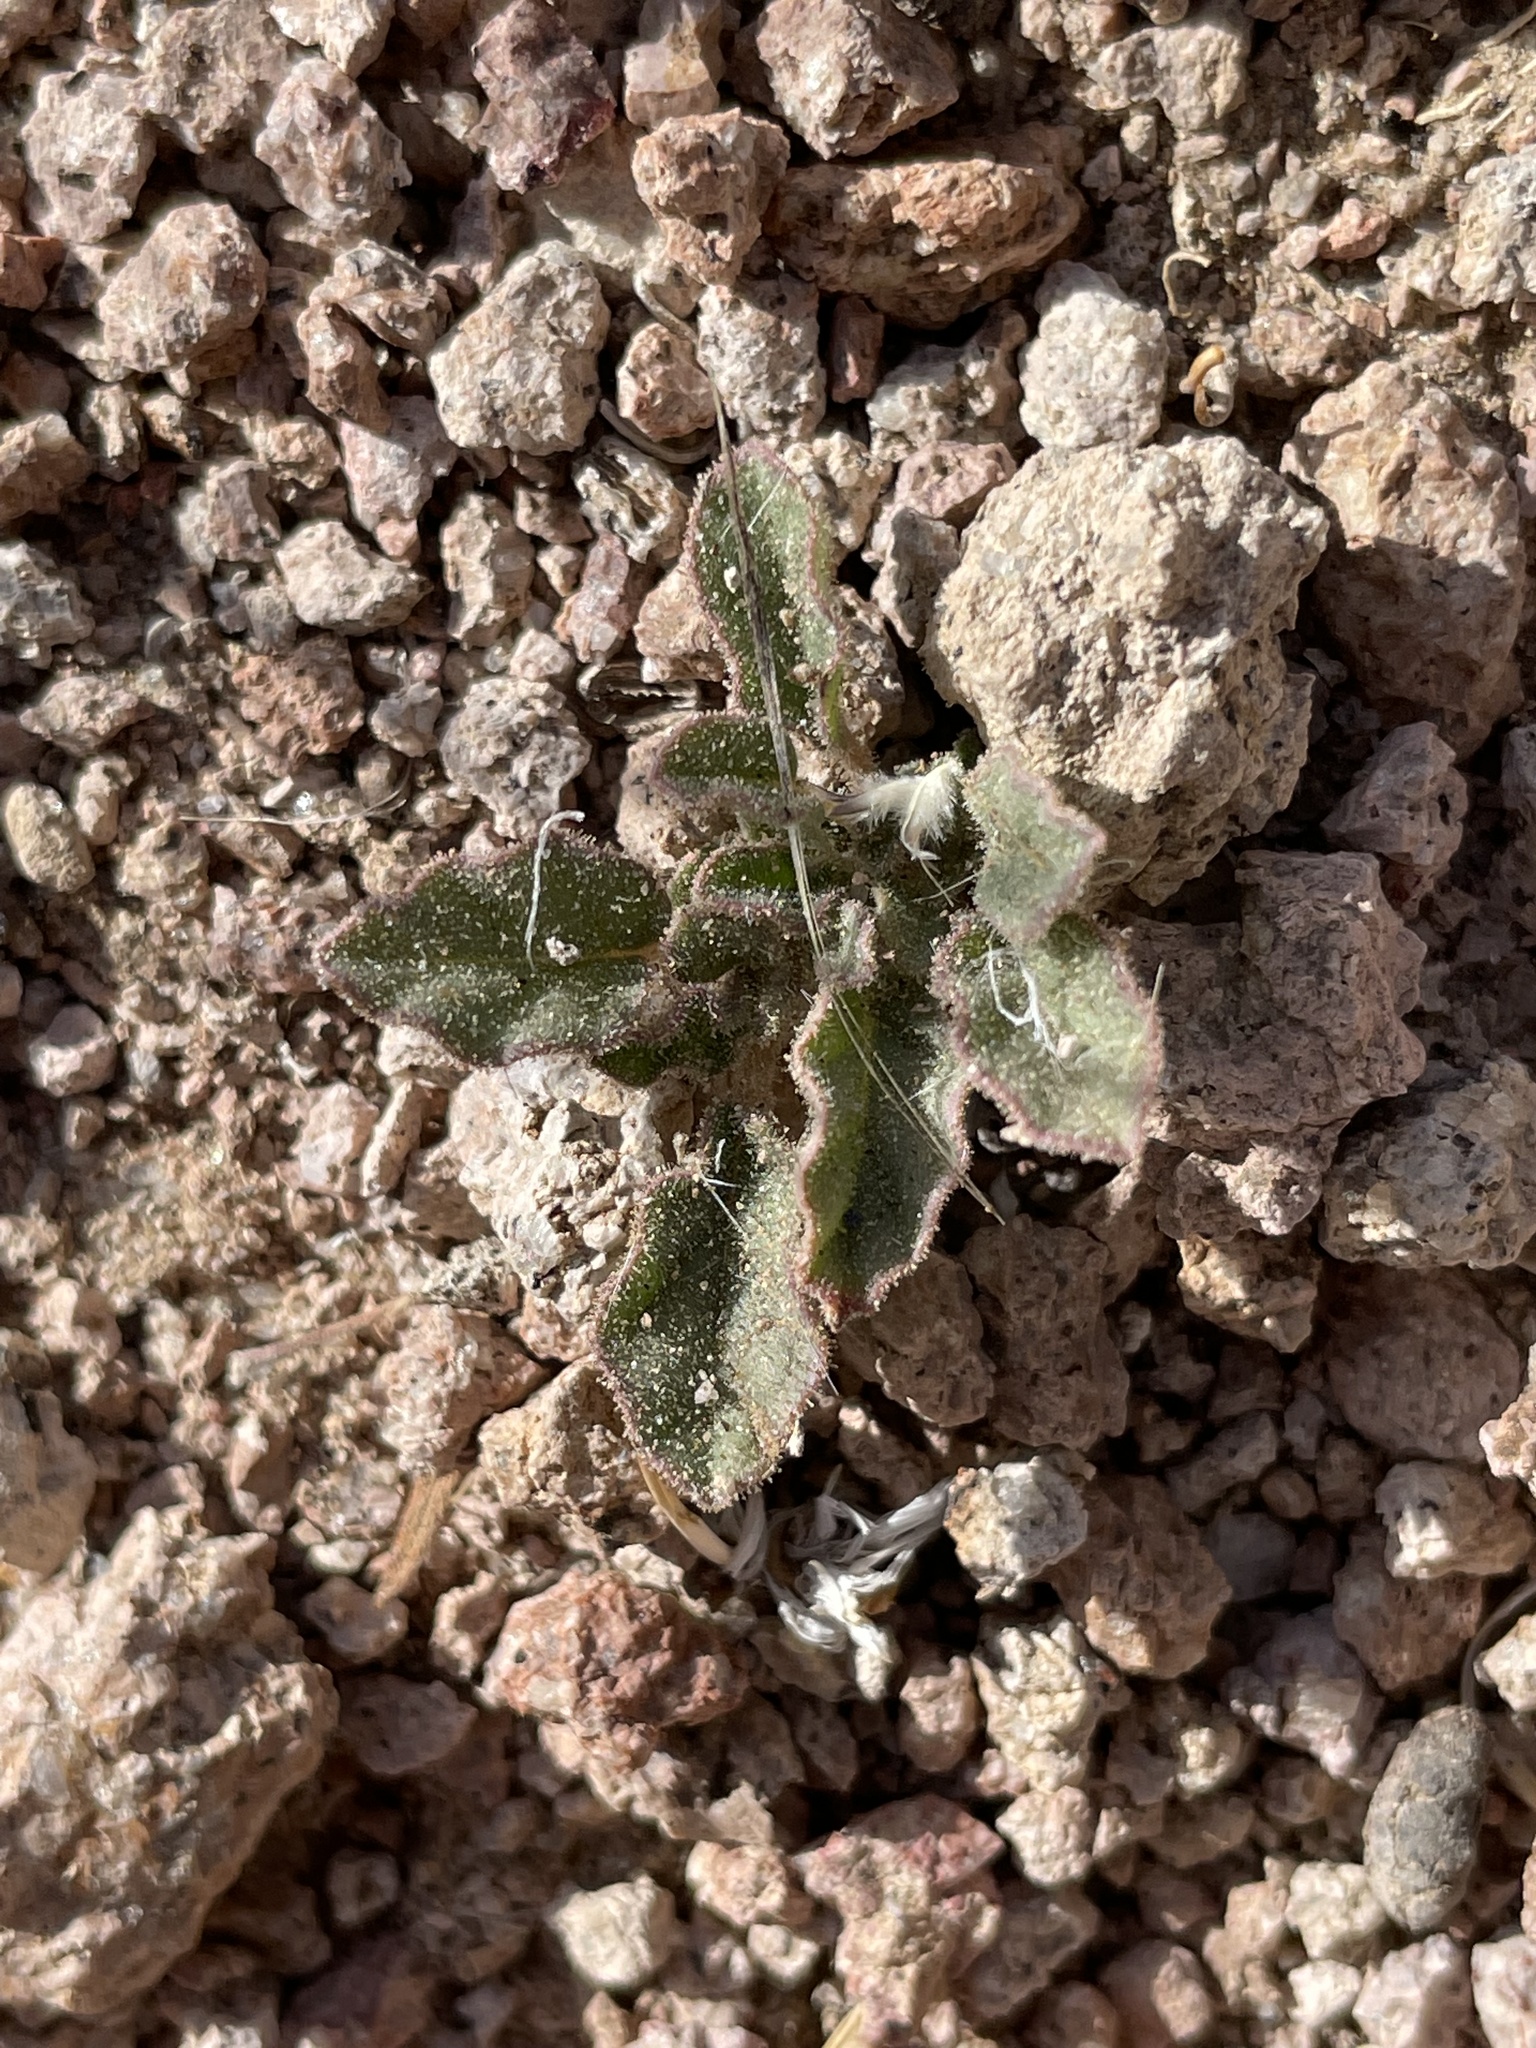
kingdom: Plantae
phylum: Tracheophyta
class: Magnoliopsida
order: Caryophyllales
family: Nyctaginaceae
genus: Allionia
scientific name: Allionia incarnata
